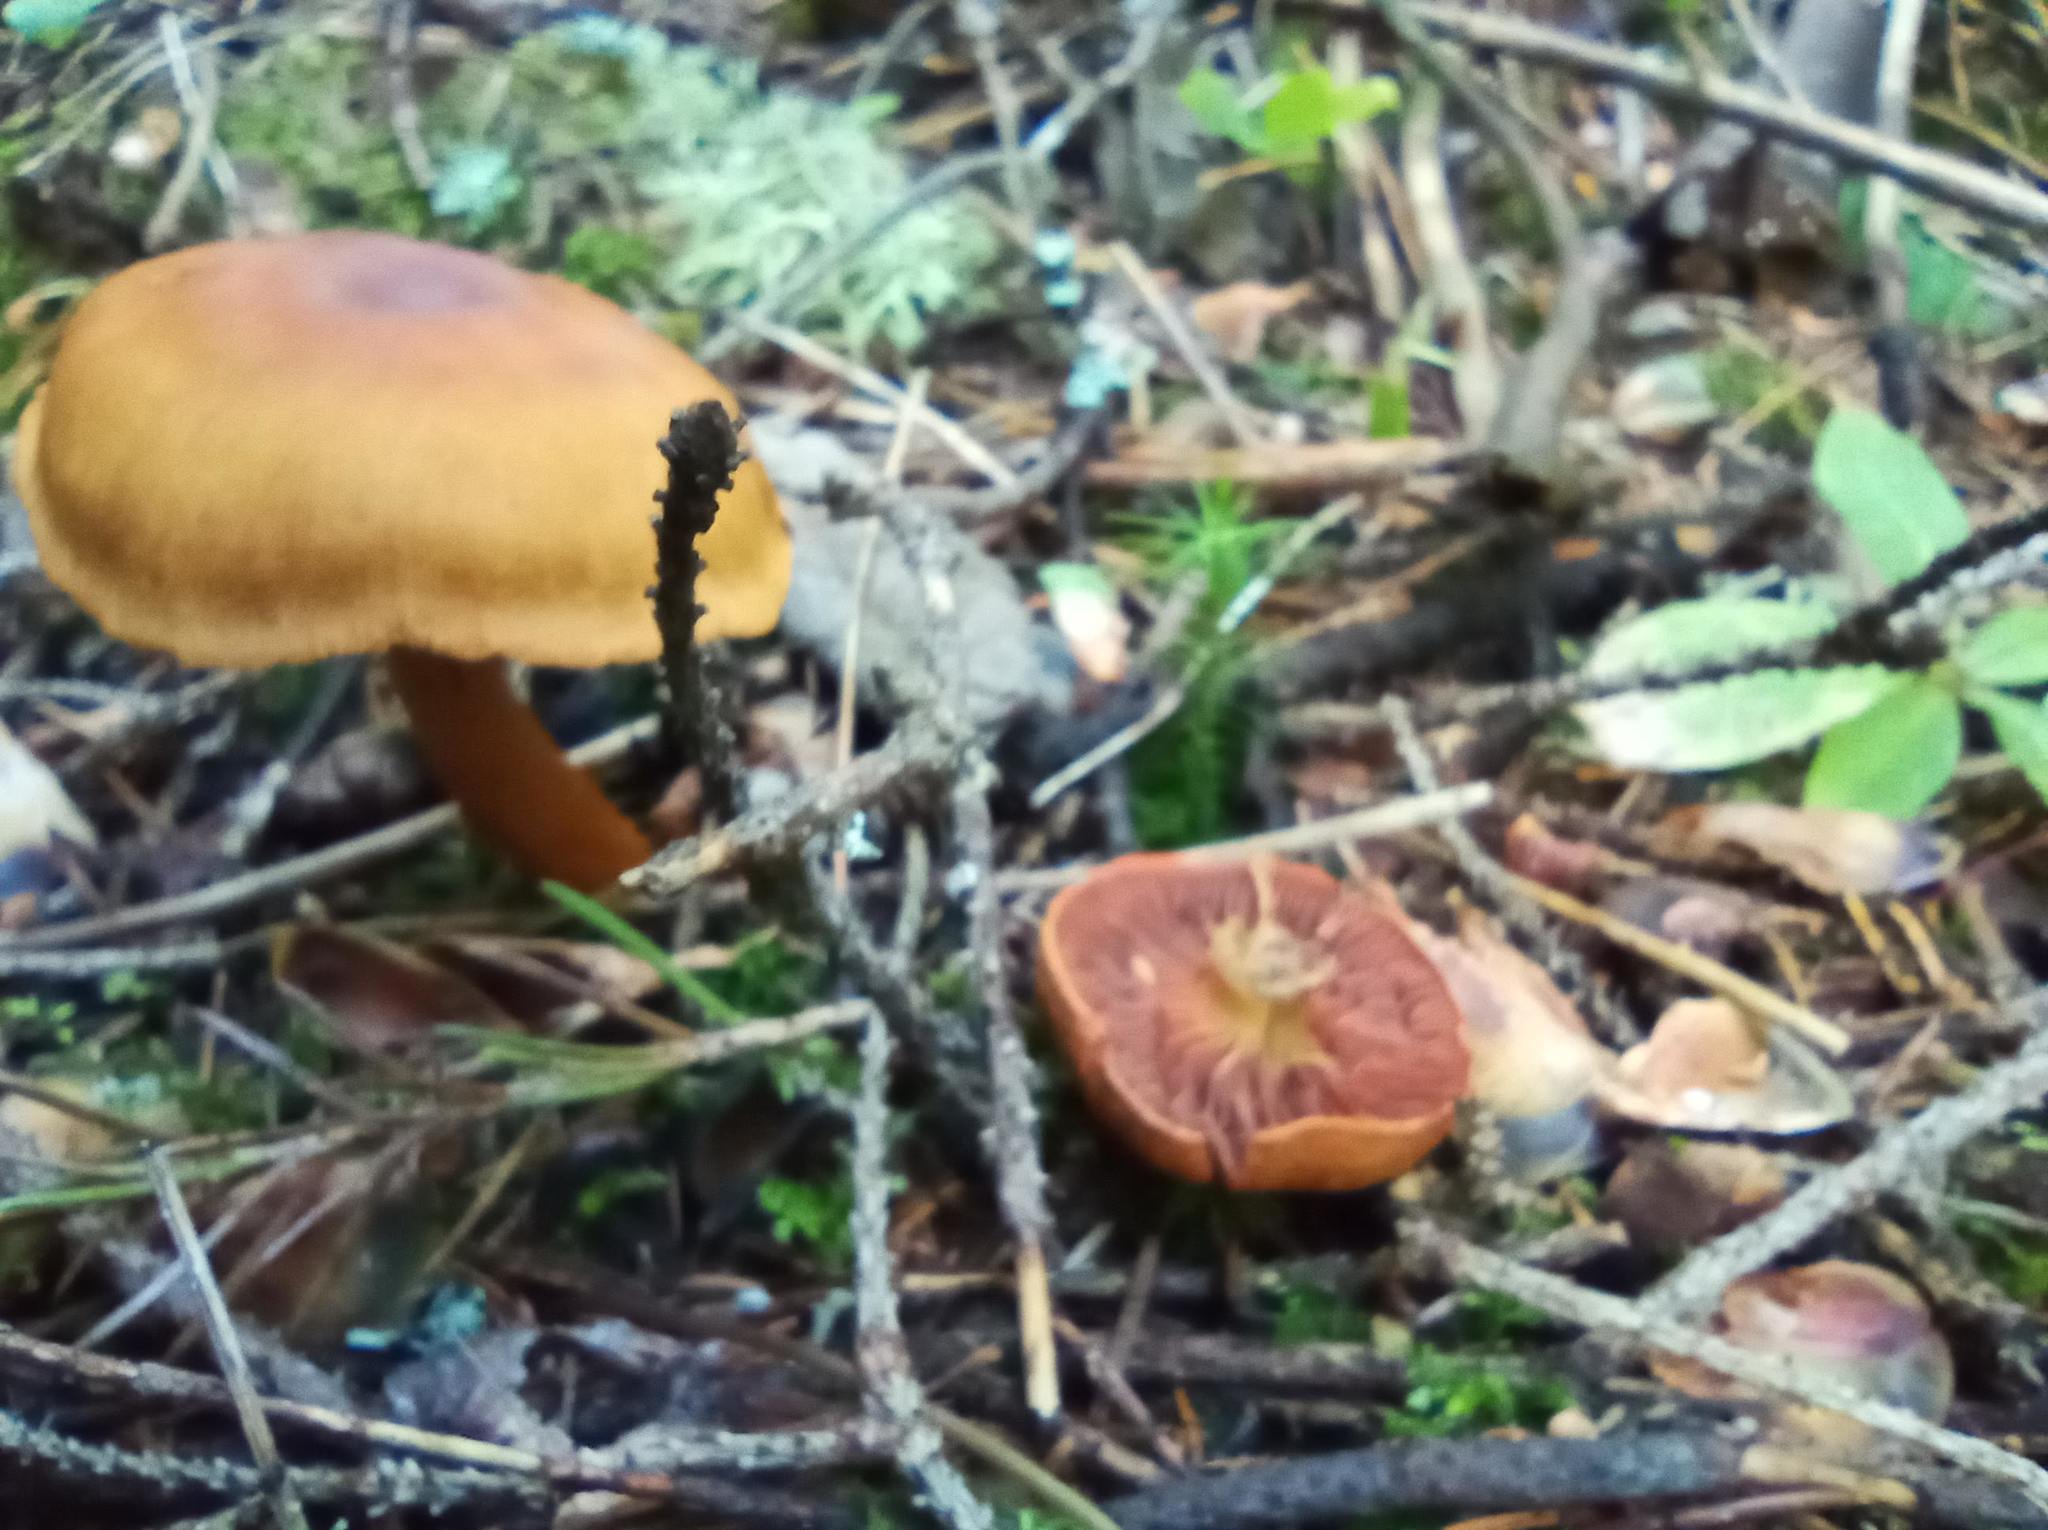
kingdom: Fungi
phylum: Basidiomycota
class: Agaricomycetes
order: Agaricales
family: Cortinariaceae
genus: Cortinarius
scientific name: Cortinarius semisanguineus
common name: Surprise webcap
